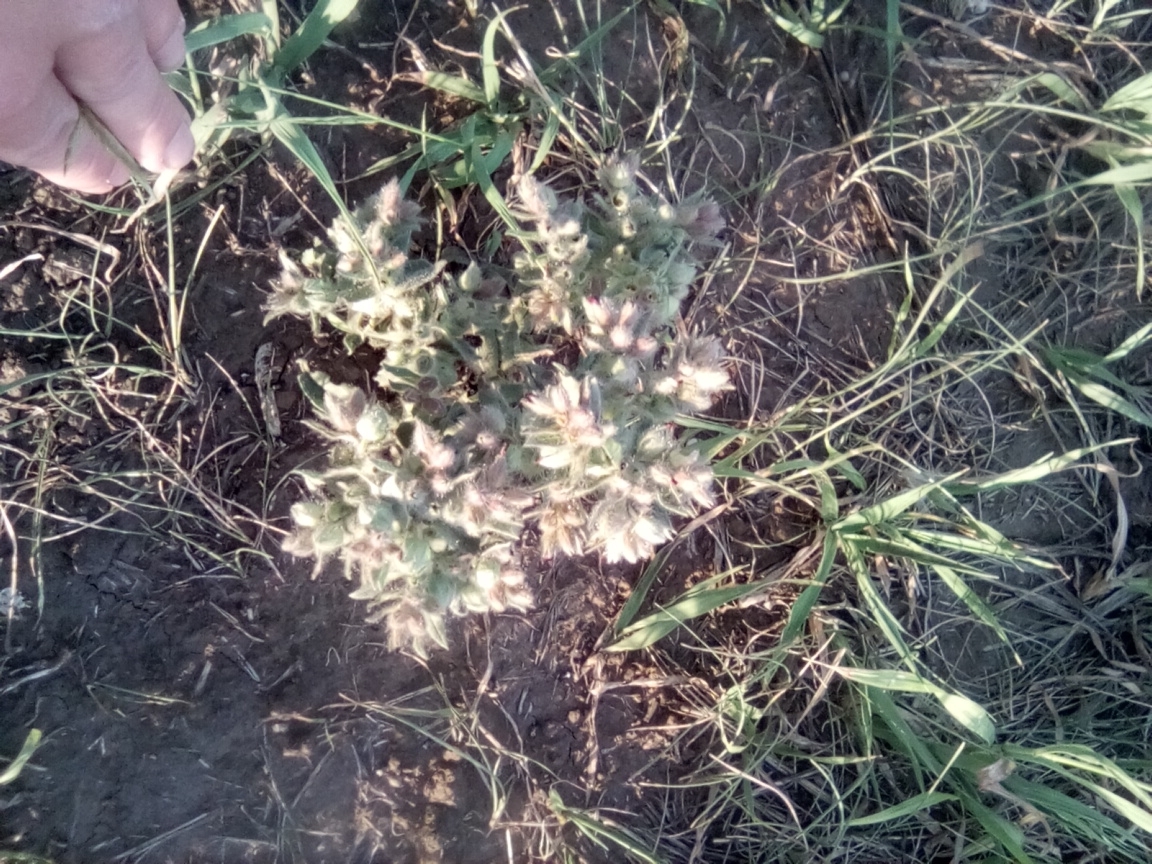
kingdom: Plantae
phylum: Tracheophyta
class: Magnoliopsida
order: Boraginales
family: Boraginaceae
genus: Nonea
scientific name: Nonea pulla
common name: Brown nonea
